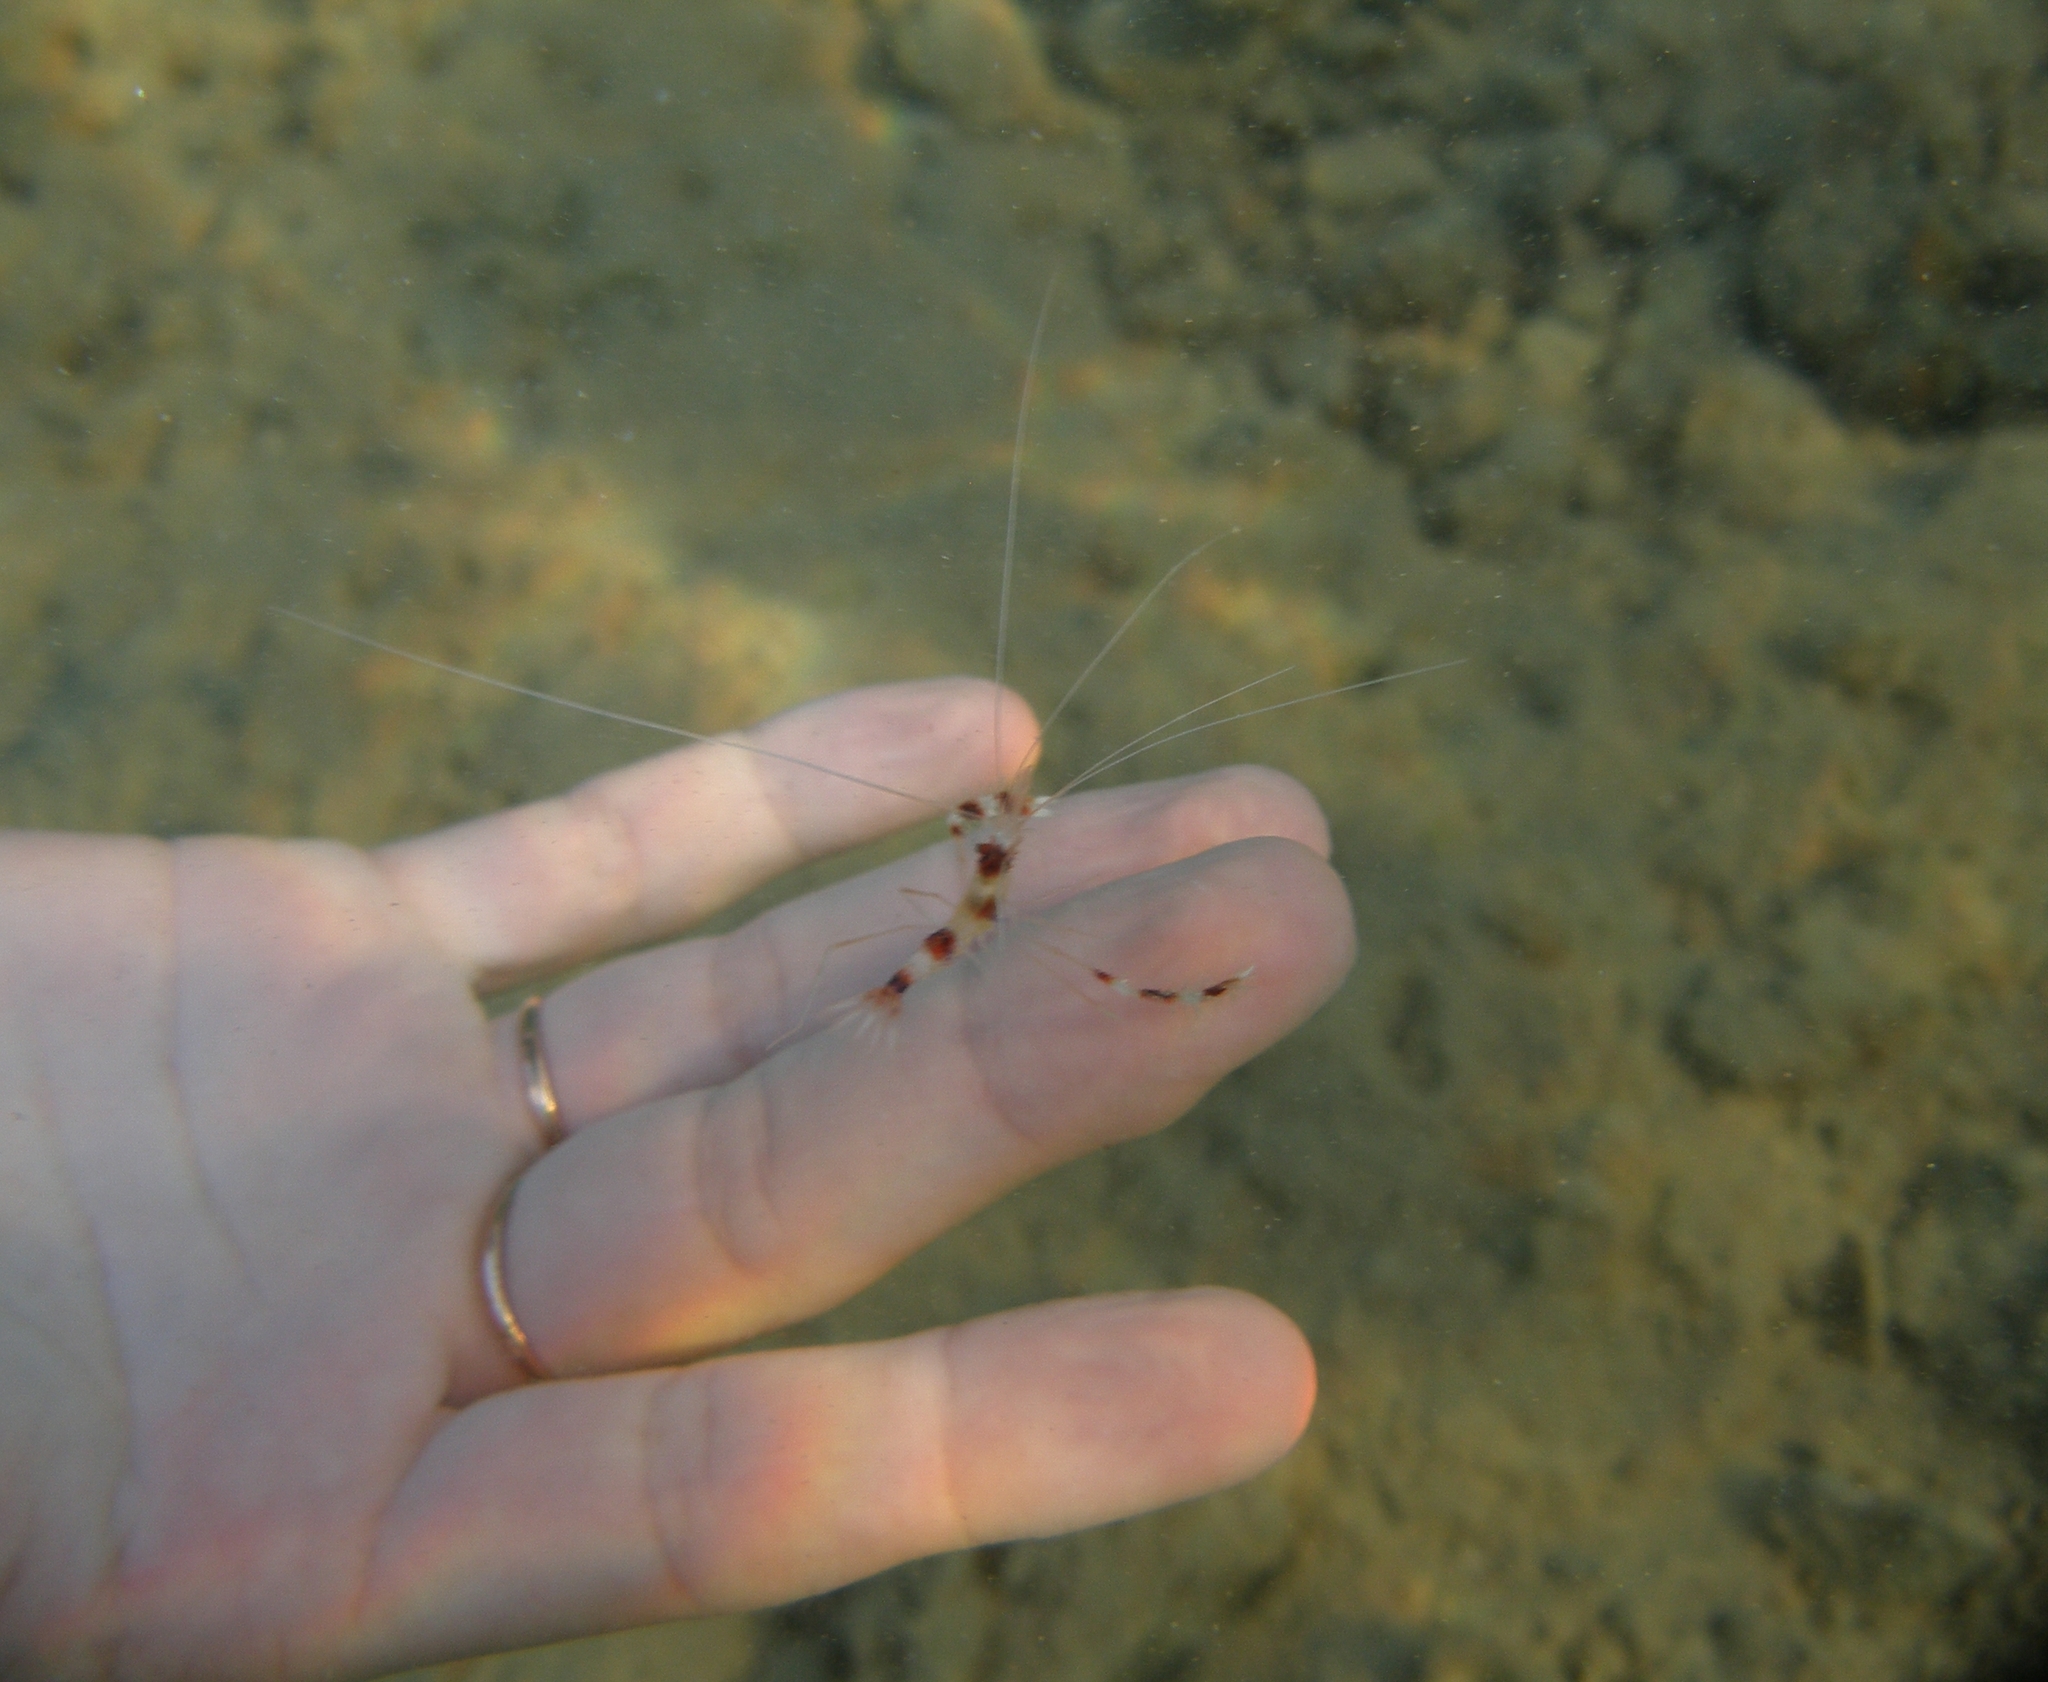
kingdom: Animalia
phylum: Arthropoda
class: Malacostraca
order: Decapoda
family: Stenopodidae
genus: Stenopus
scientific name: Stenopus hispidus
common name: Banded coral shrimp
